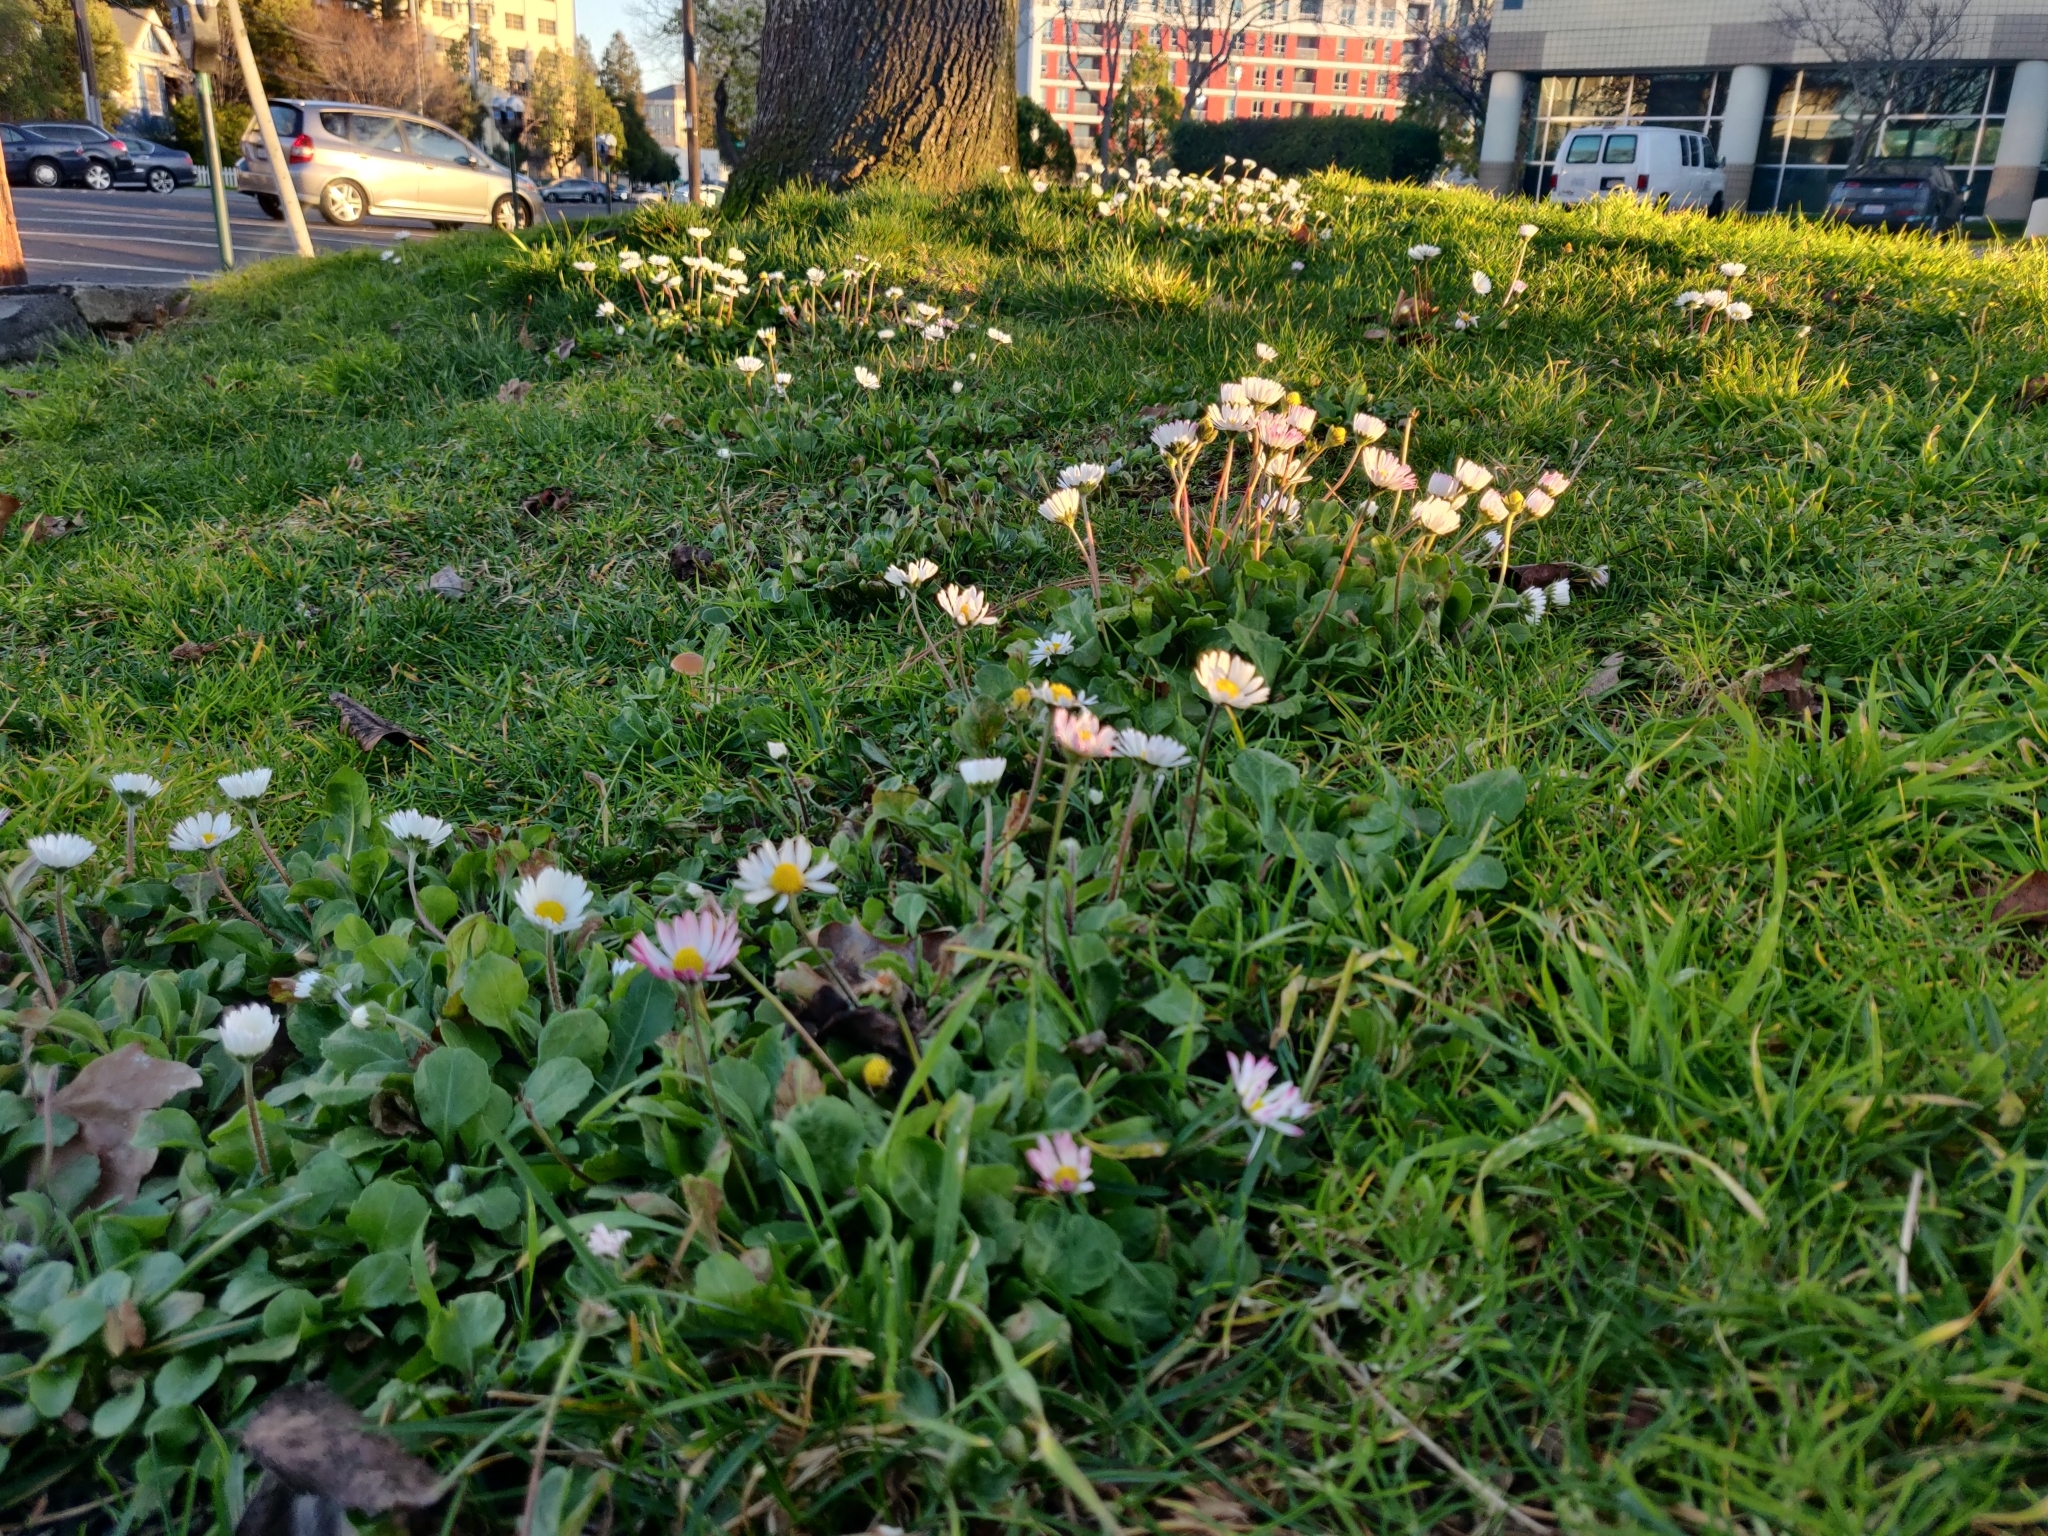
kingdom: Plantae
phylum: Tracheophyta
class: Magnoliopsida
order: Asterales
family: Asteraceae
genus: Bellis
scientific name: Bellis perennis
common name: Lawndaisy
